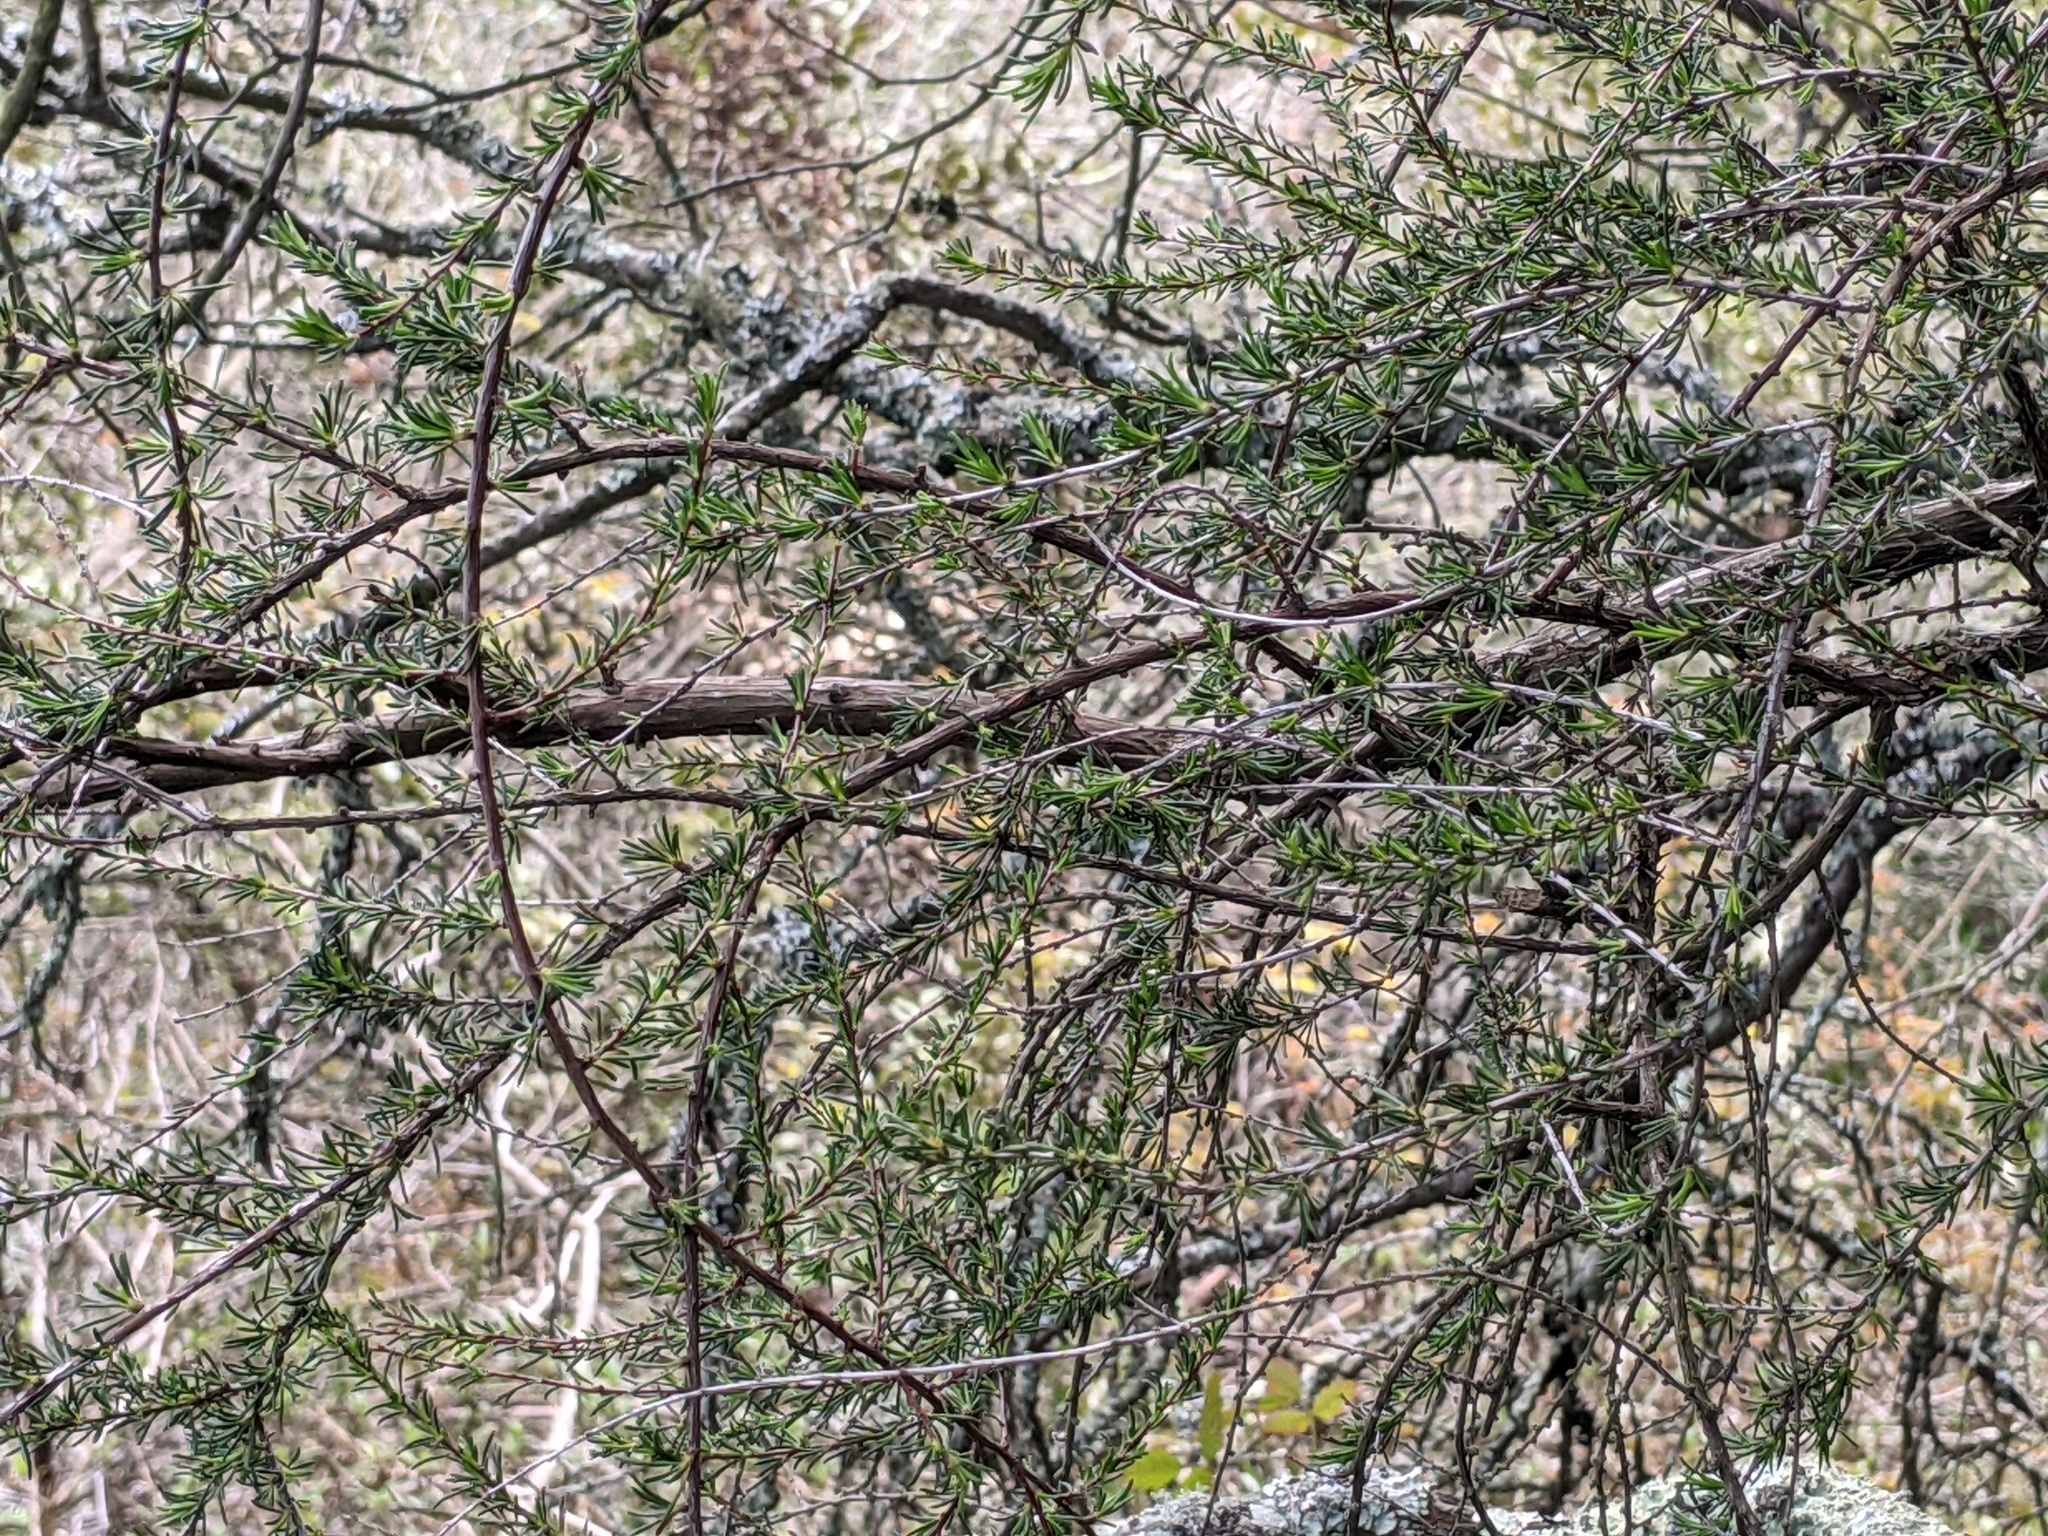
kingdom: Plantae
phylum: Tracheophyta
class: Magnoliopsida
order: Rosales
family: Rosaceae
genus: Adenostoma
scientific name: Adenostoma fasciculatum
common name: Chamise
